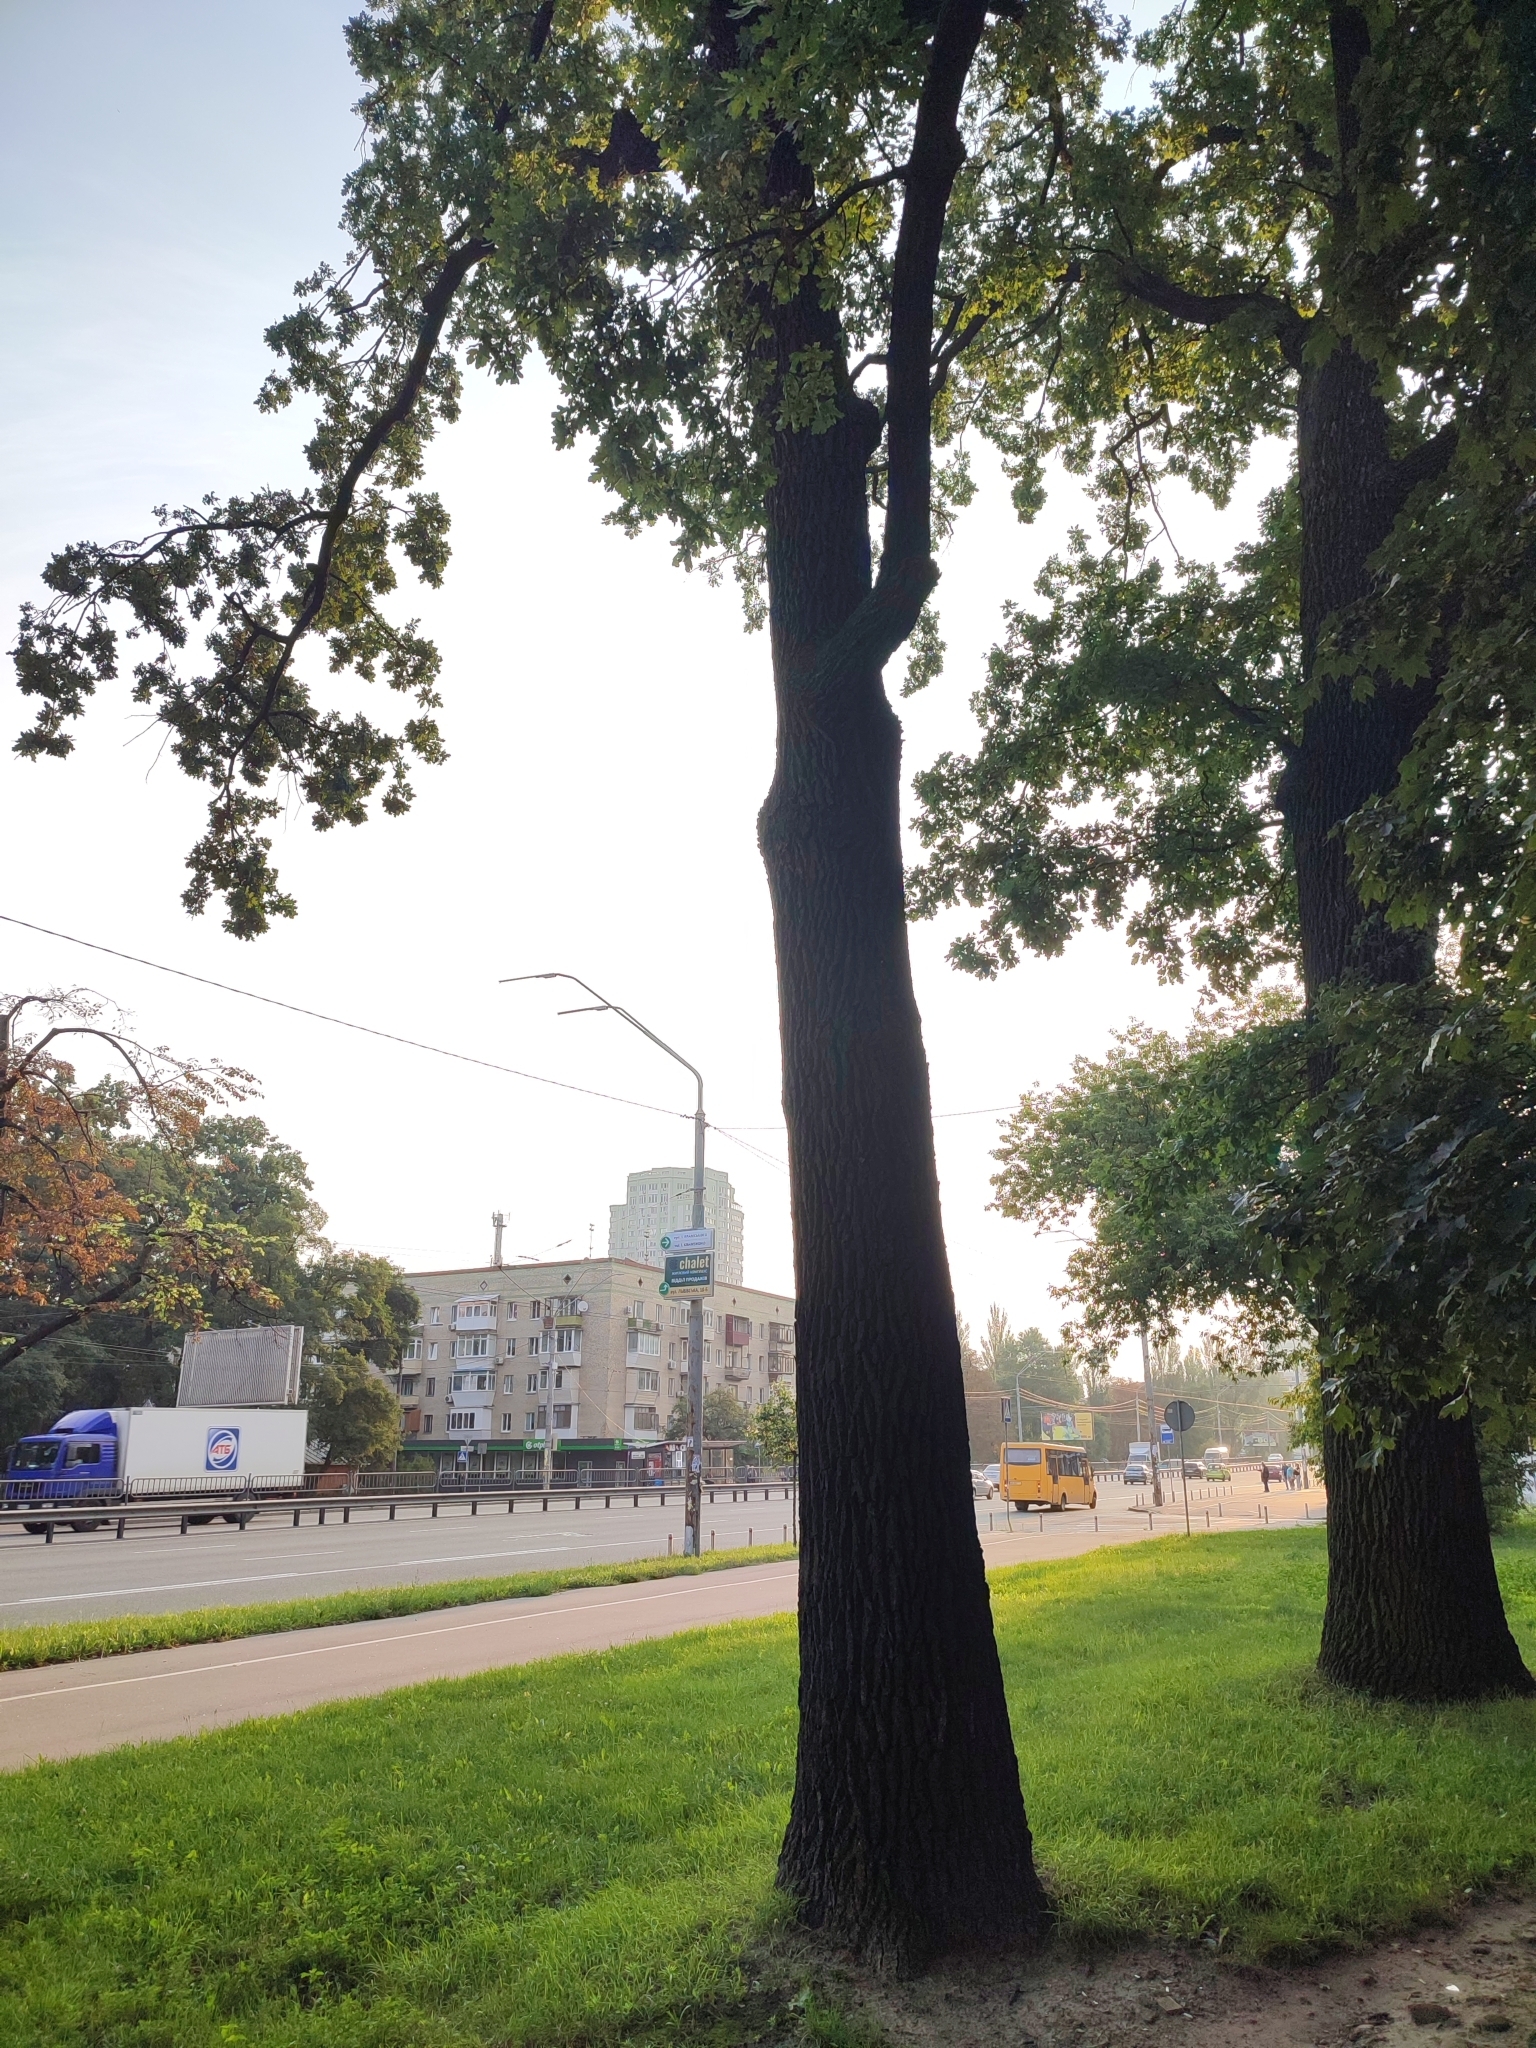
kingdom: Plantae
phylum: Tracheophyta
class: Magnoliopsida
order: Fagales
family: Fagaceae
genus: Quercus
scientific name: Quercus robur
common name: Pedunculate oak
